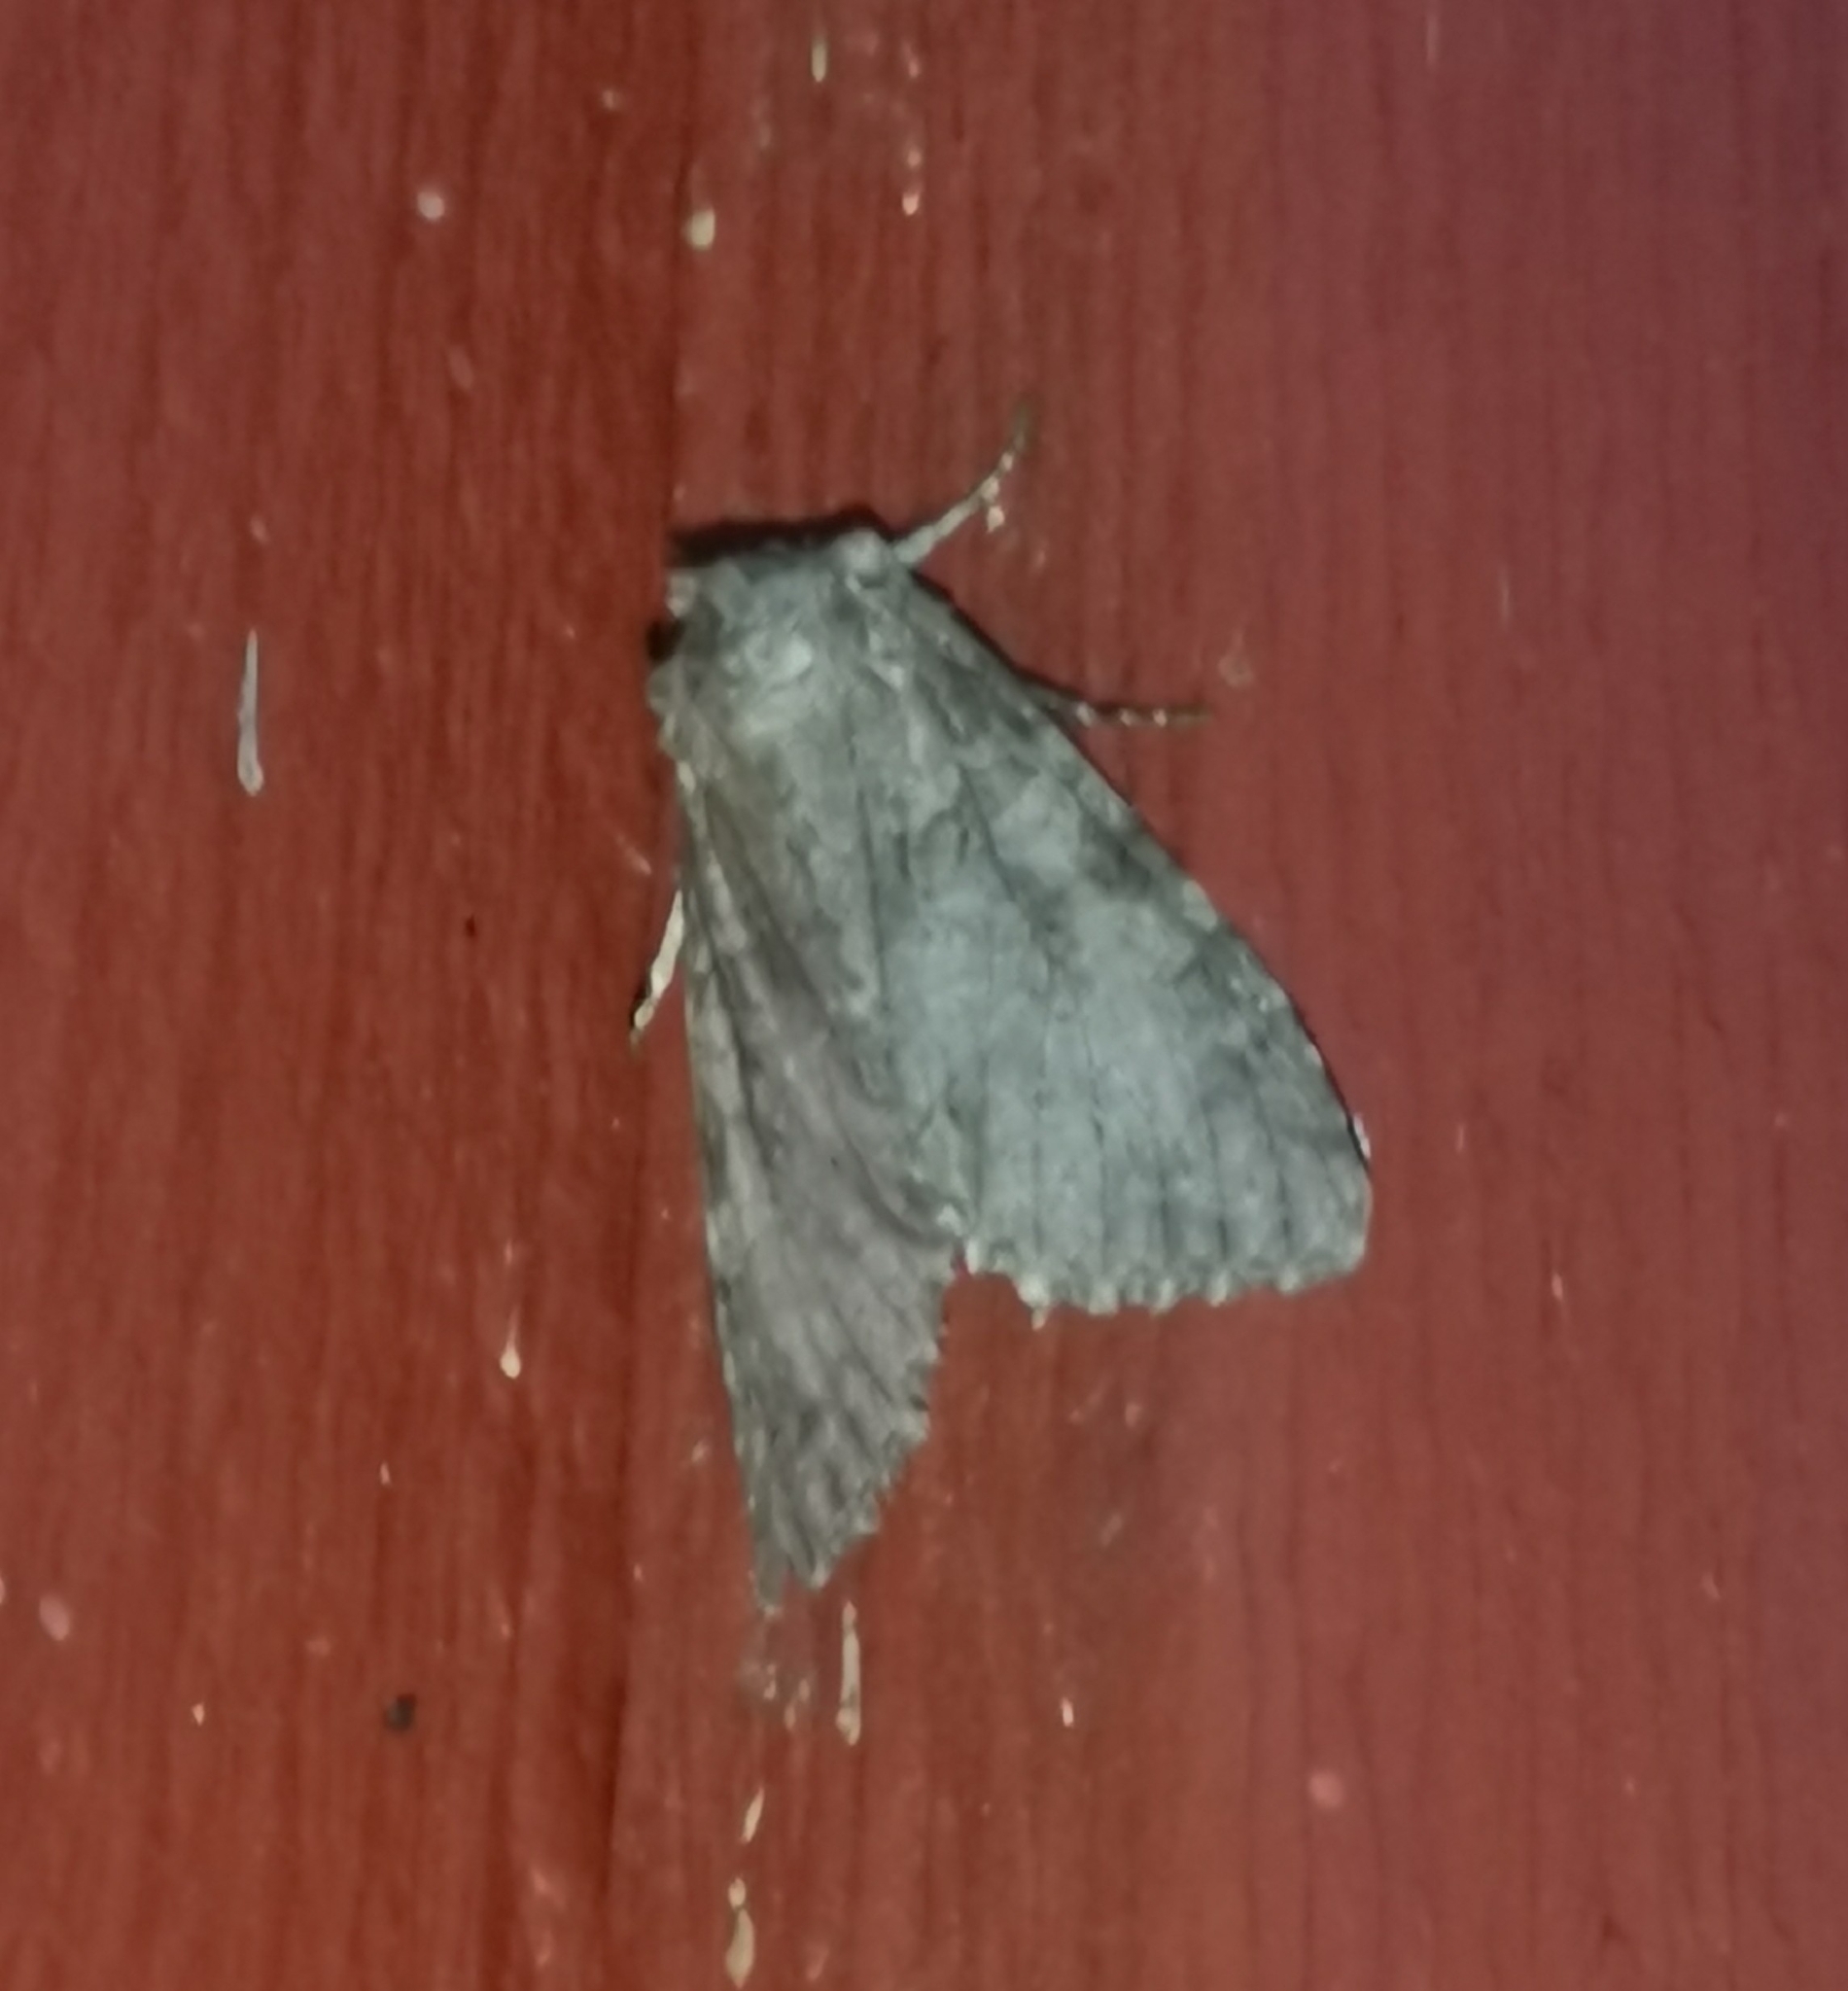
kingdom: Animalia
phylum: Arthropoda
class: Insecta
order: Lepidoptera
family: Noctuidae
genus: Polia
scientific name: Polia nebulosa
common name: Grey arches
